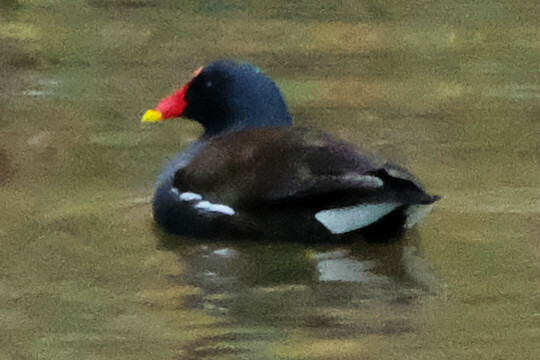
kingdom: Animalia
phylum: Chordata
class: Aves
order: Gruiformes
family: Rallidae
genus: Gallinula
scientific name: Gallinula chloropus
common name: Common moorhen
